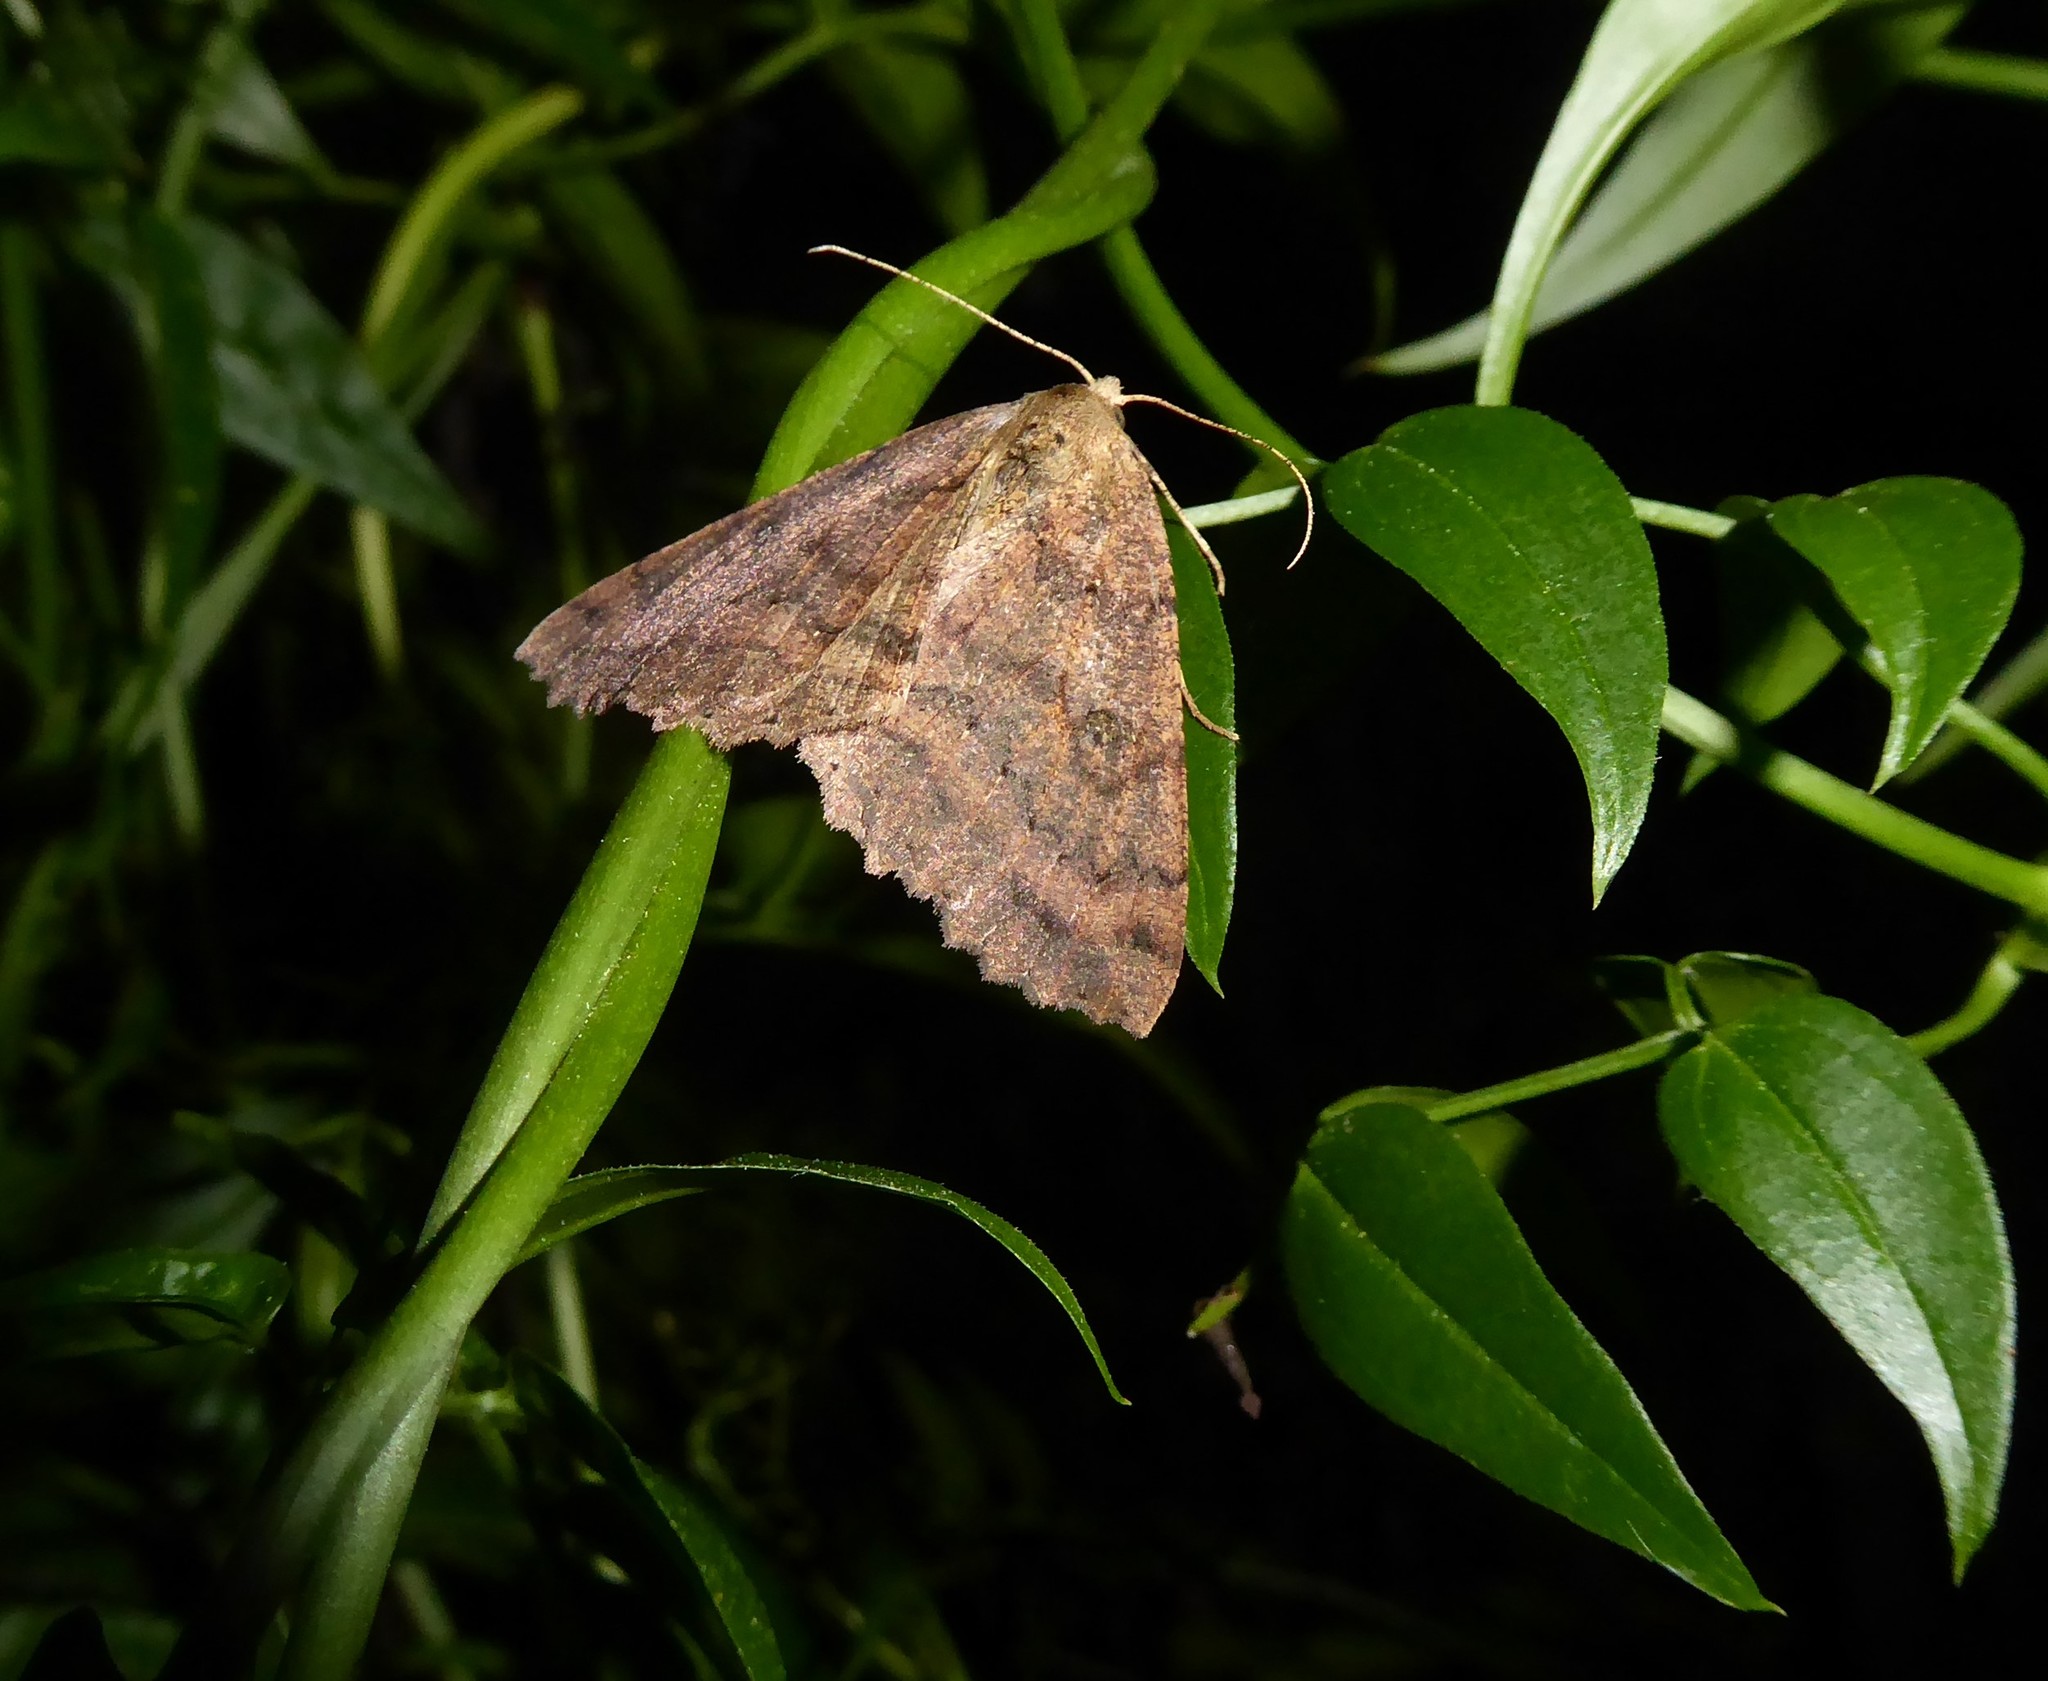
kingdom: Animalia
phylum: Arthropoda
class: Insecta
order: Lepidoptera
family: Geometridae
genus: Cleora
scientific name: Cleora scriptaria
